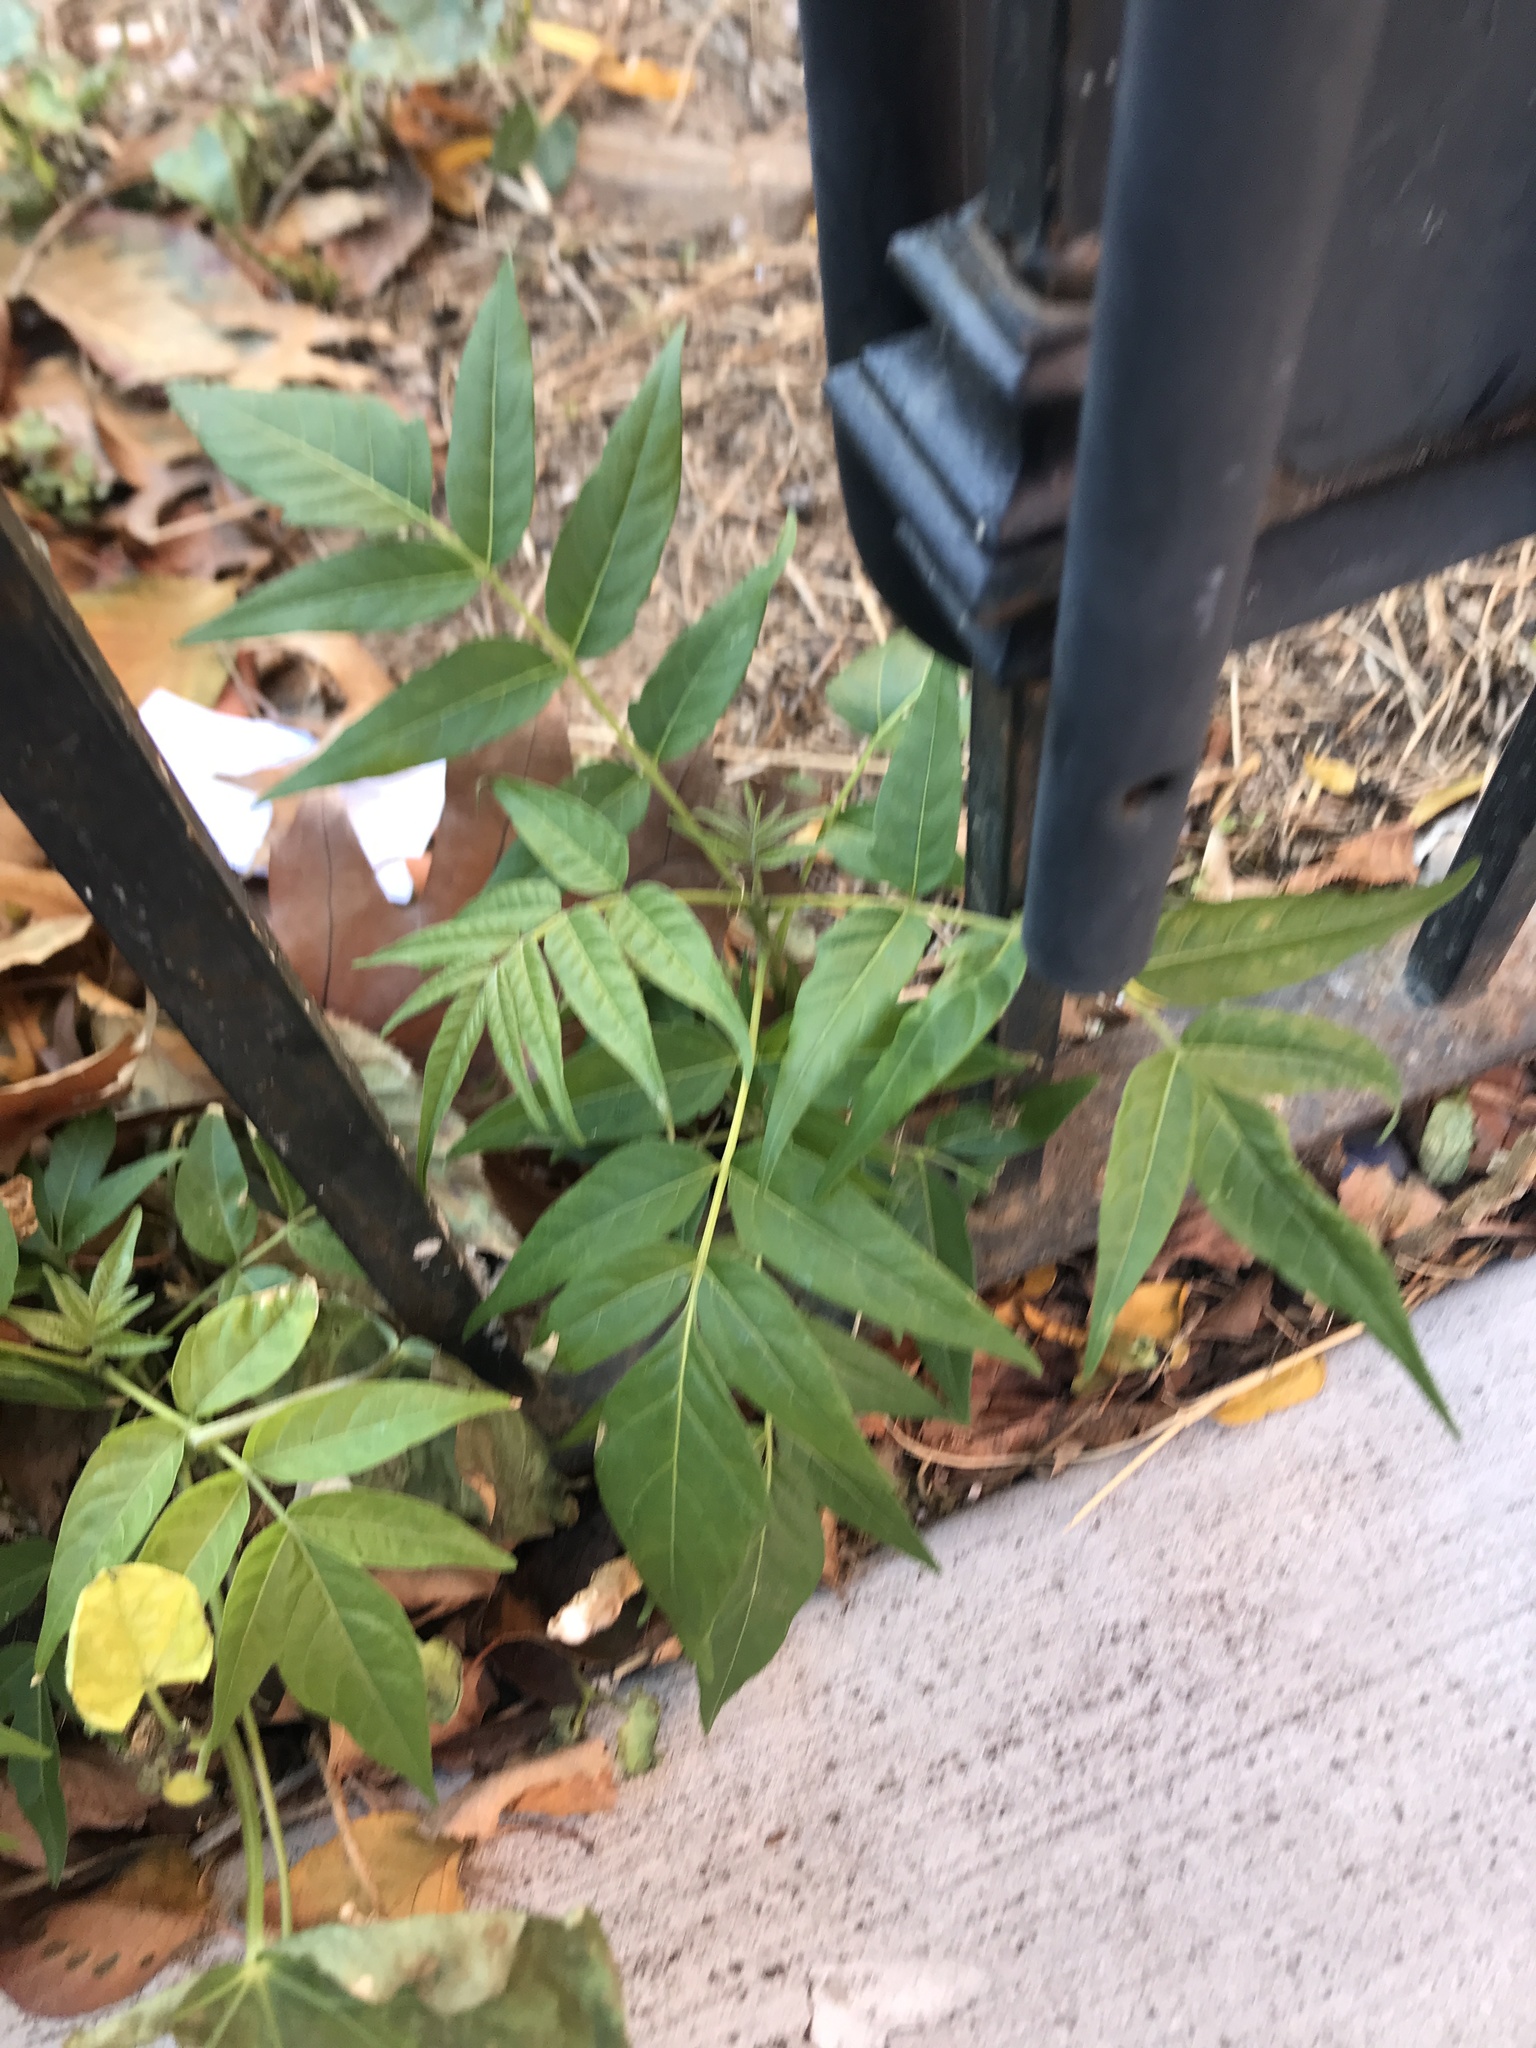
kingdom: Plantae
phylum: Tracheophyta
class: Magnoliopsida
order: Sapindales
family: Simaroubaceae
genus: Ailanthus
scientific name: Ailanthus altissima
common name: Tree-of-heaven
